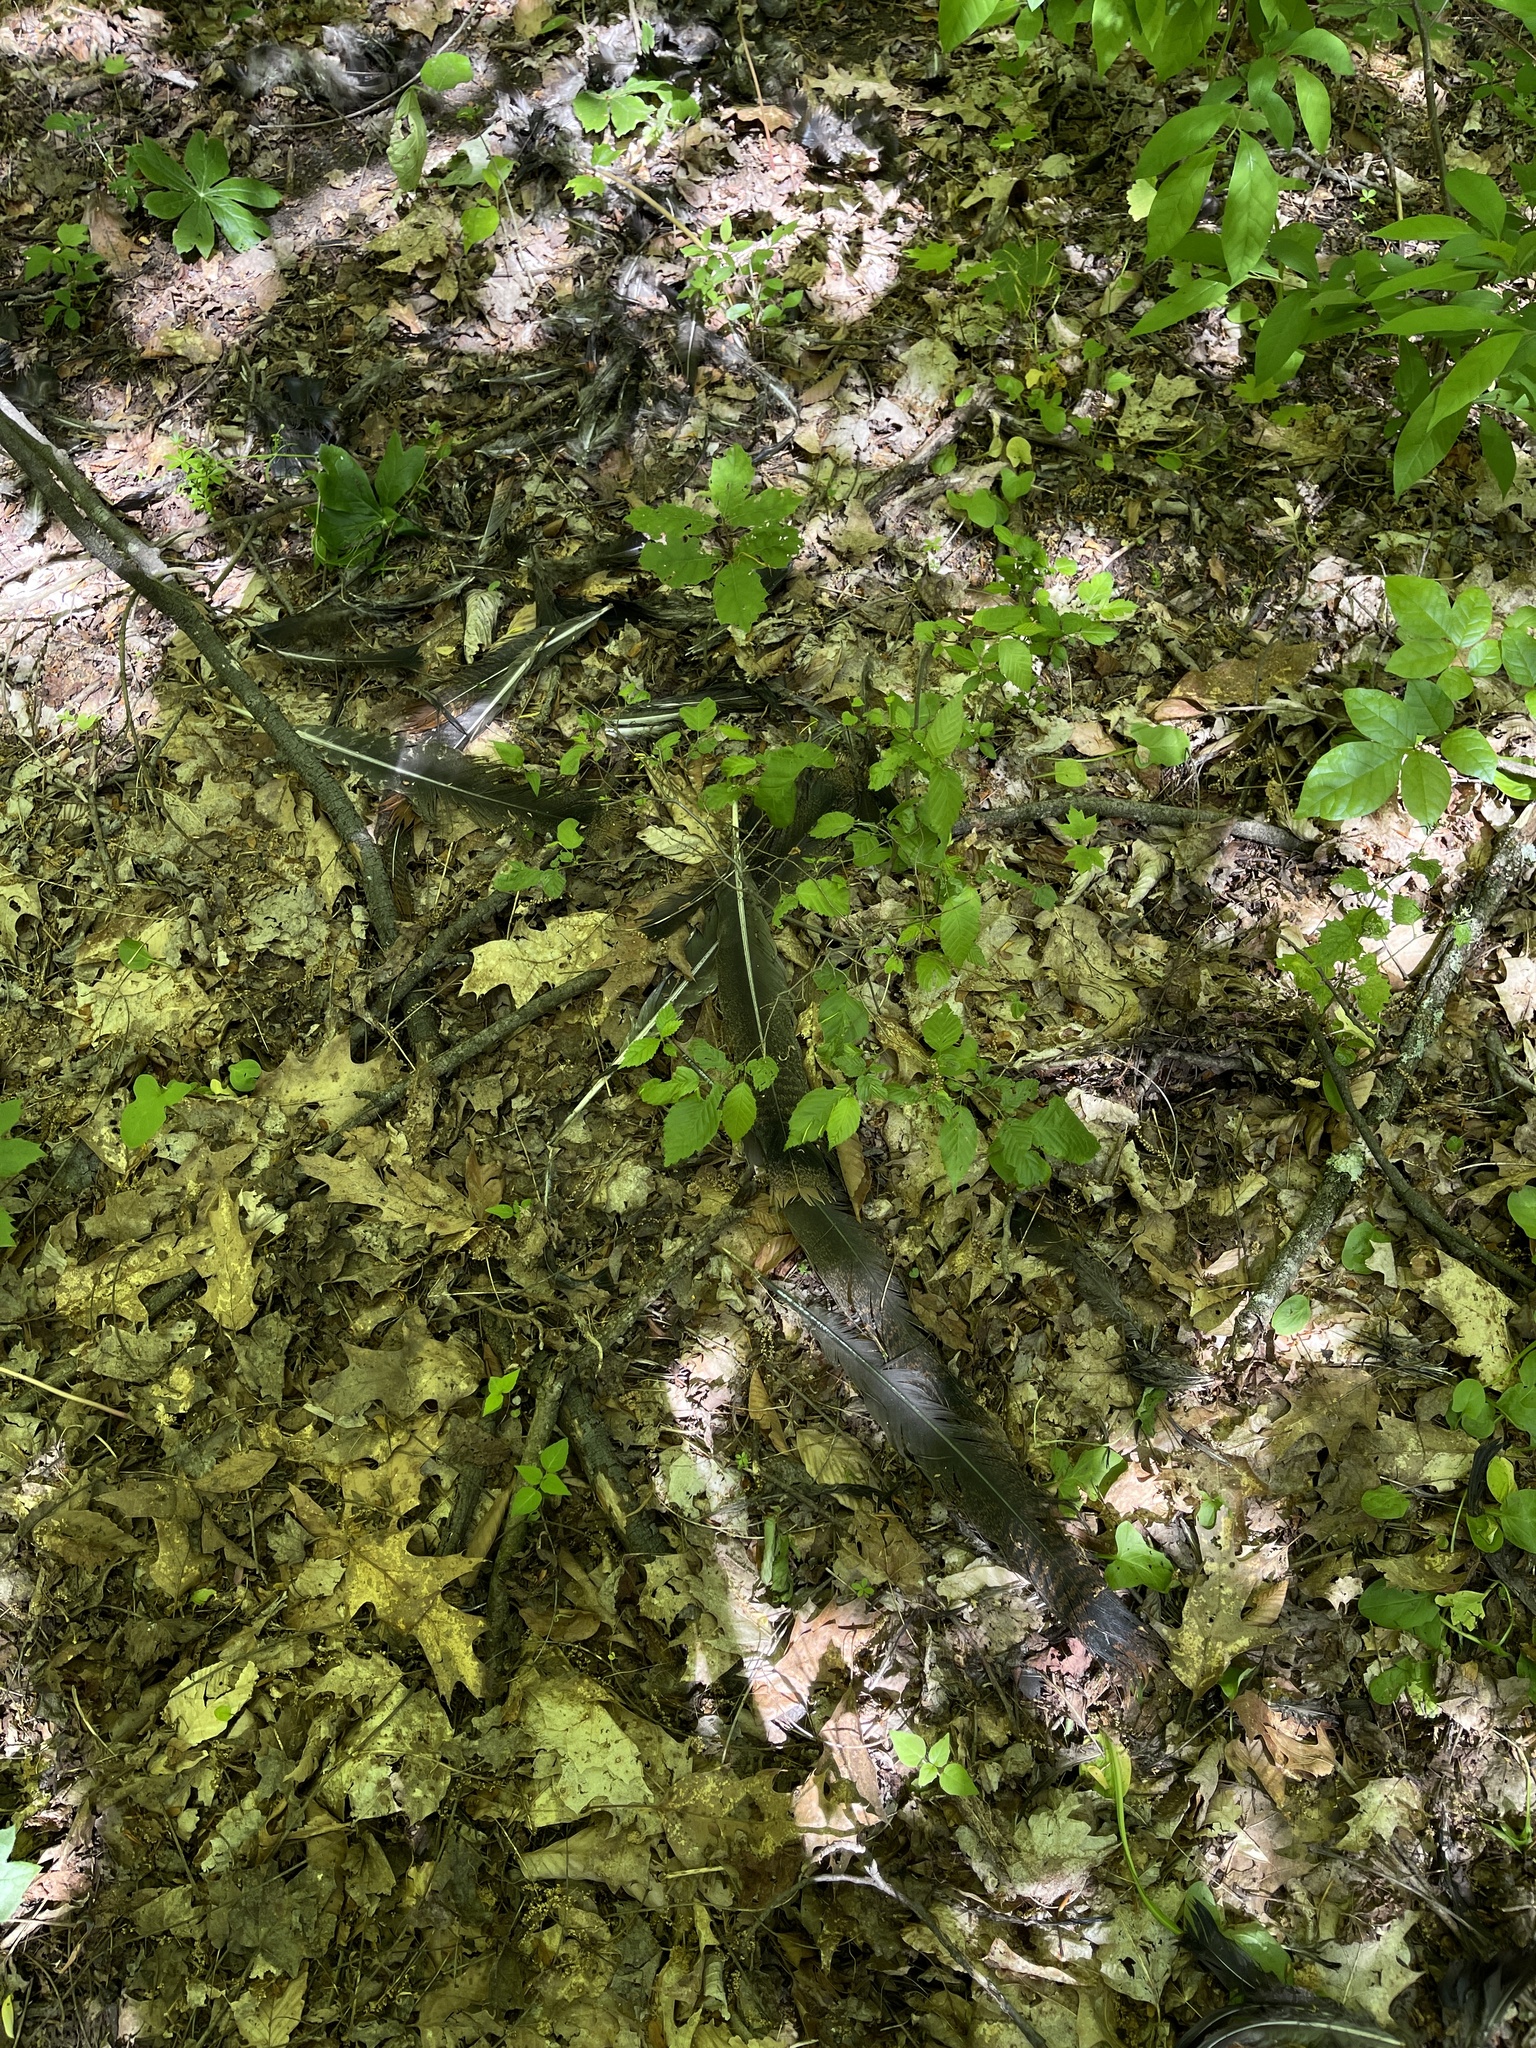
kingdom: Animalia
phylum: Chordata
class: Aves
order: Galliformes
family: Phasianidae
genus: Meleagris
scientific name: Meleagris gallopavo
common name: Wild turkey
